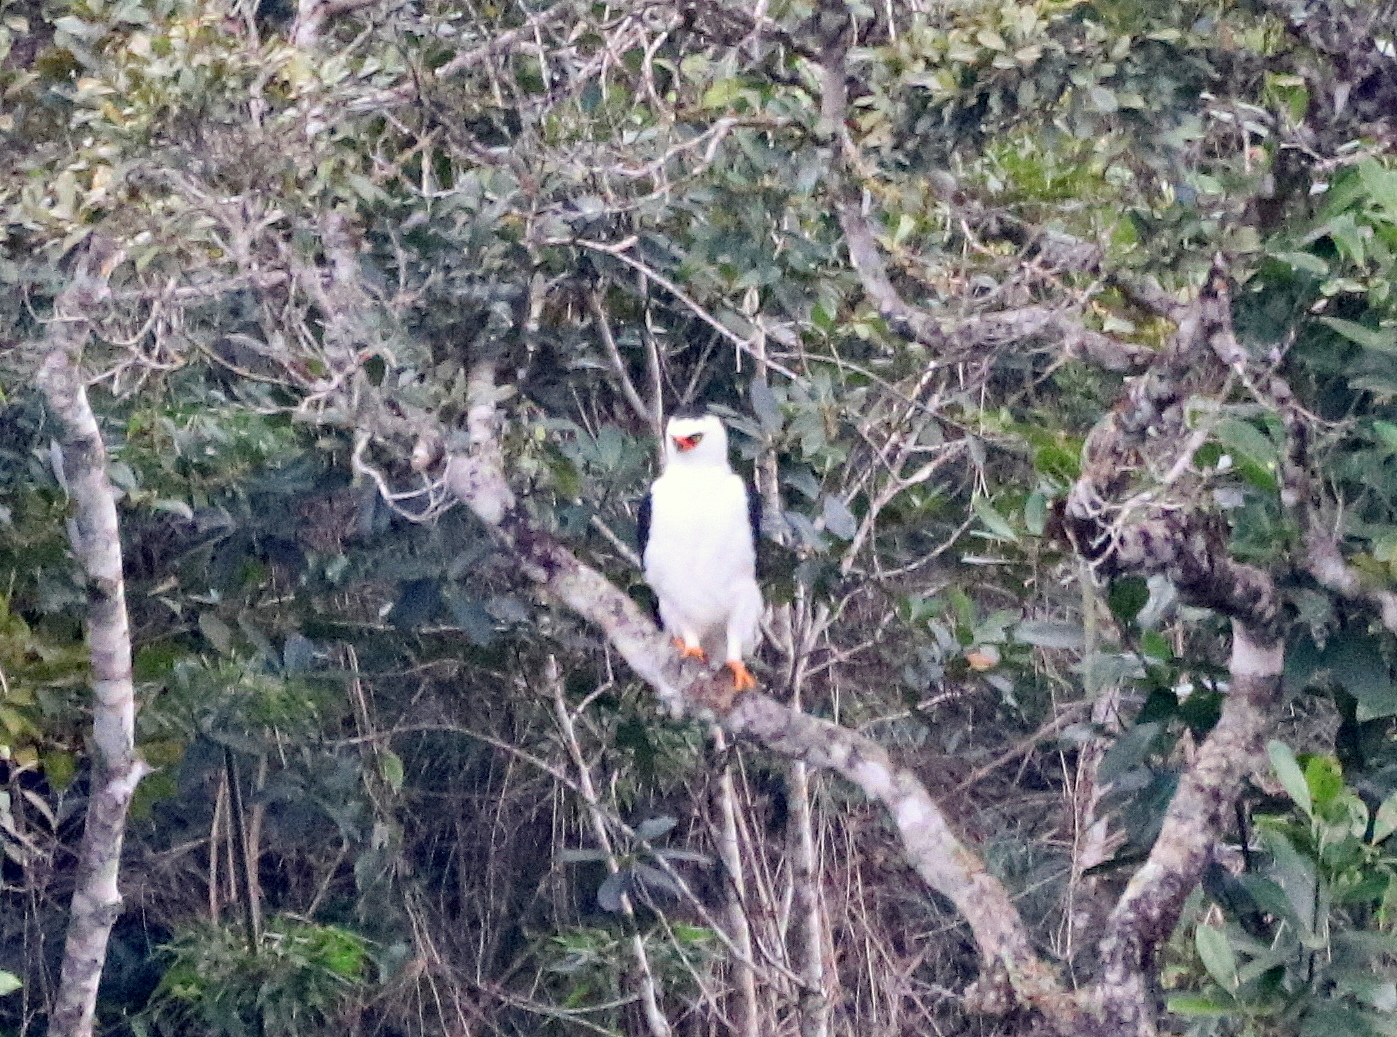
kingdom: Animalia
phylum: Chordata
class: Aves
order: Accipitriformes
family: Accipitridae
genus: Spizaetus
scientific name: Spizaetus melanoleucus
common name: Black-and-white hawk-eagle
